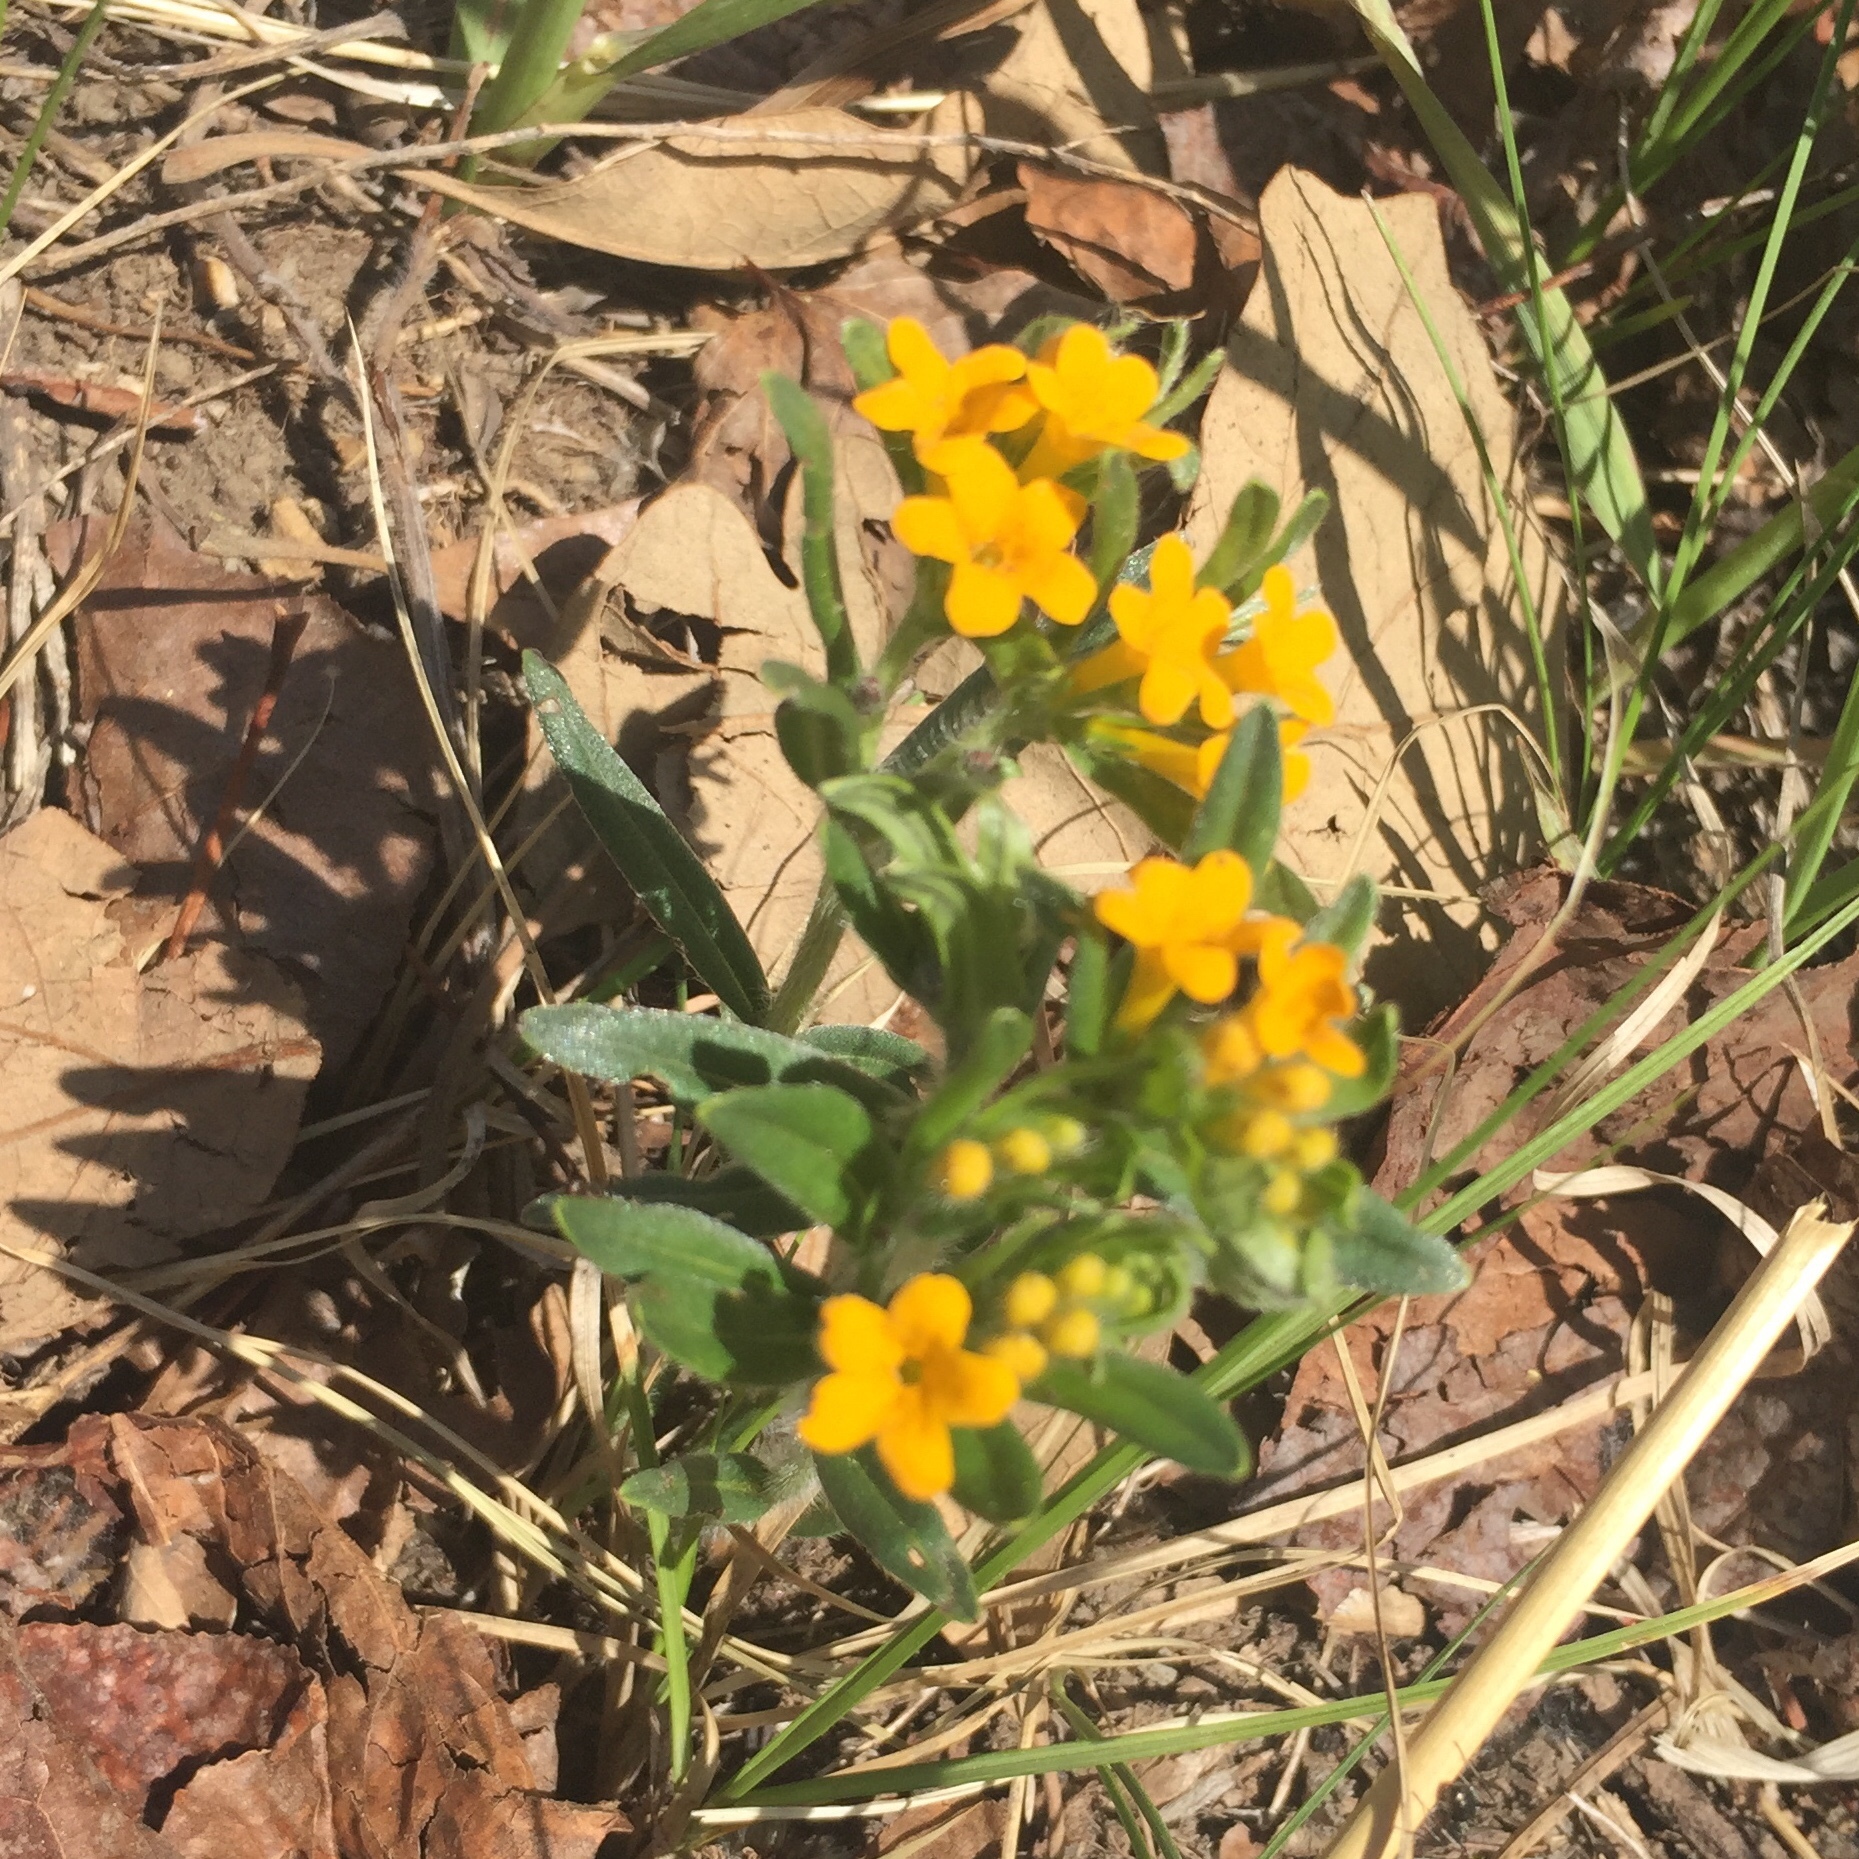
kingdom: Plantae
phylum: Tracheophyta
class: Magnoliopsida
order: Boraginales
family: Boraginaceae
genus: Lithospermum
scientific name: Lithospermum canescens
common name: Hoary puccoon
